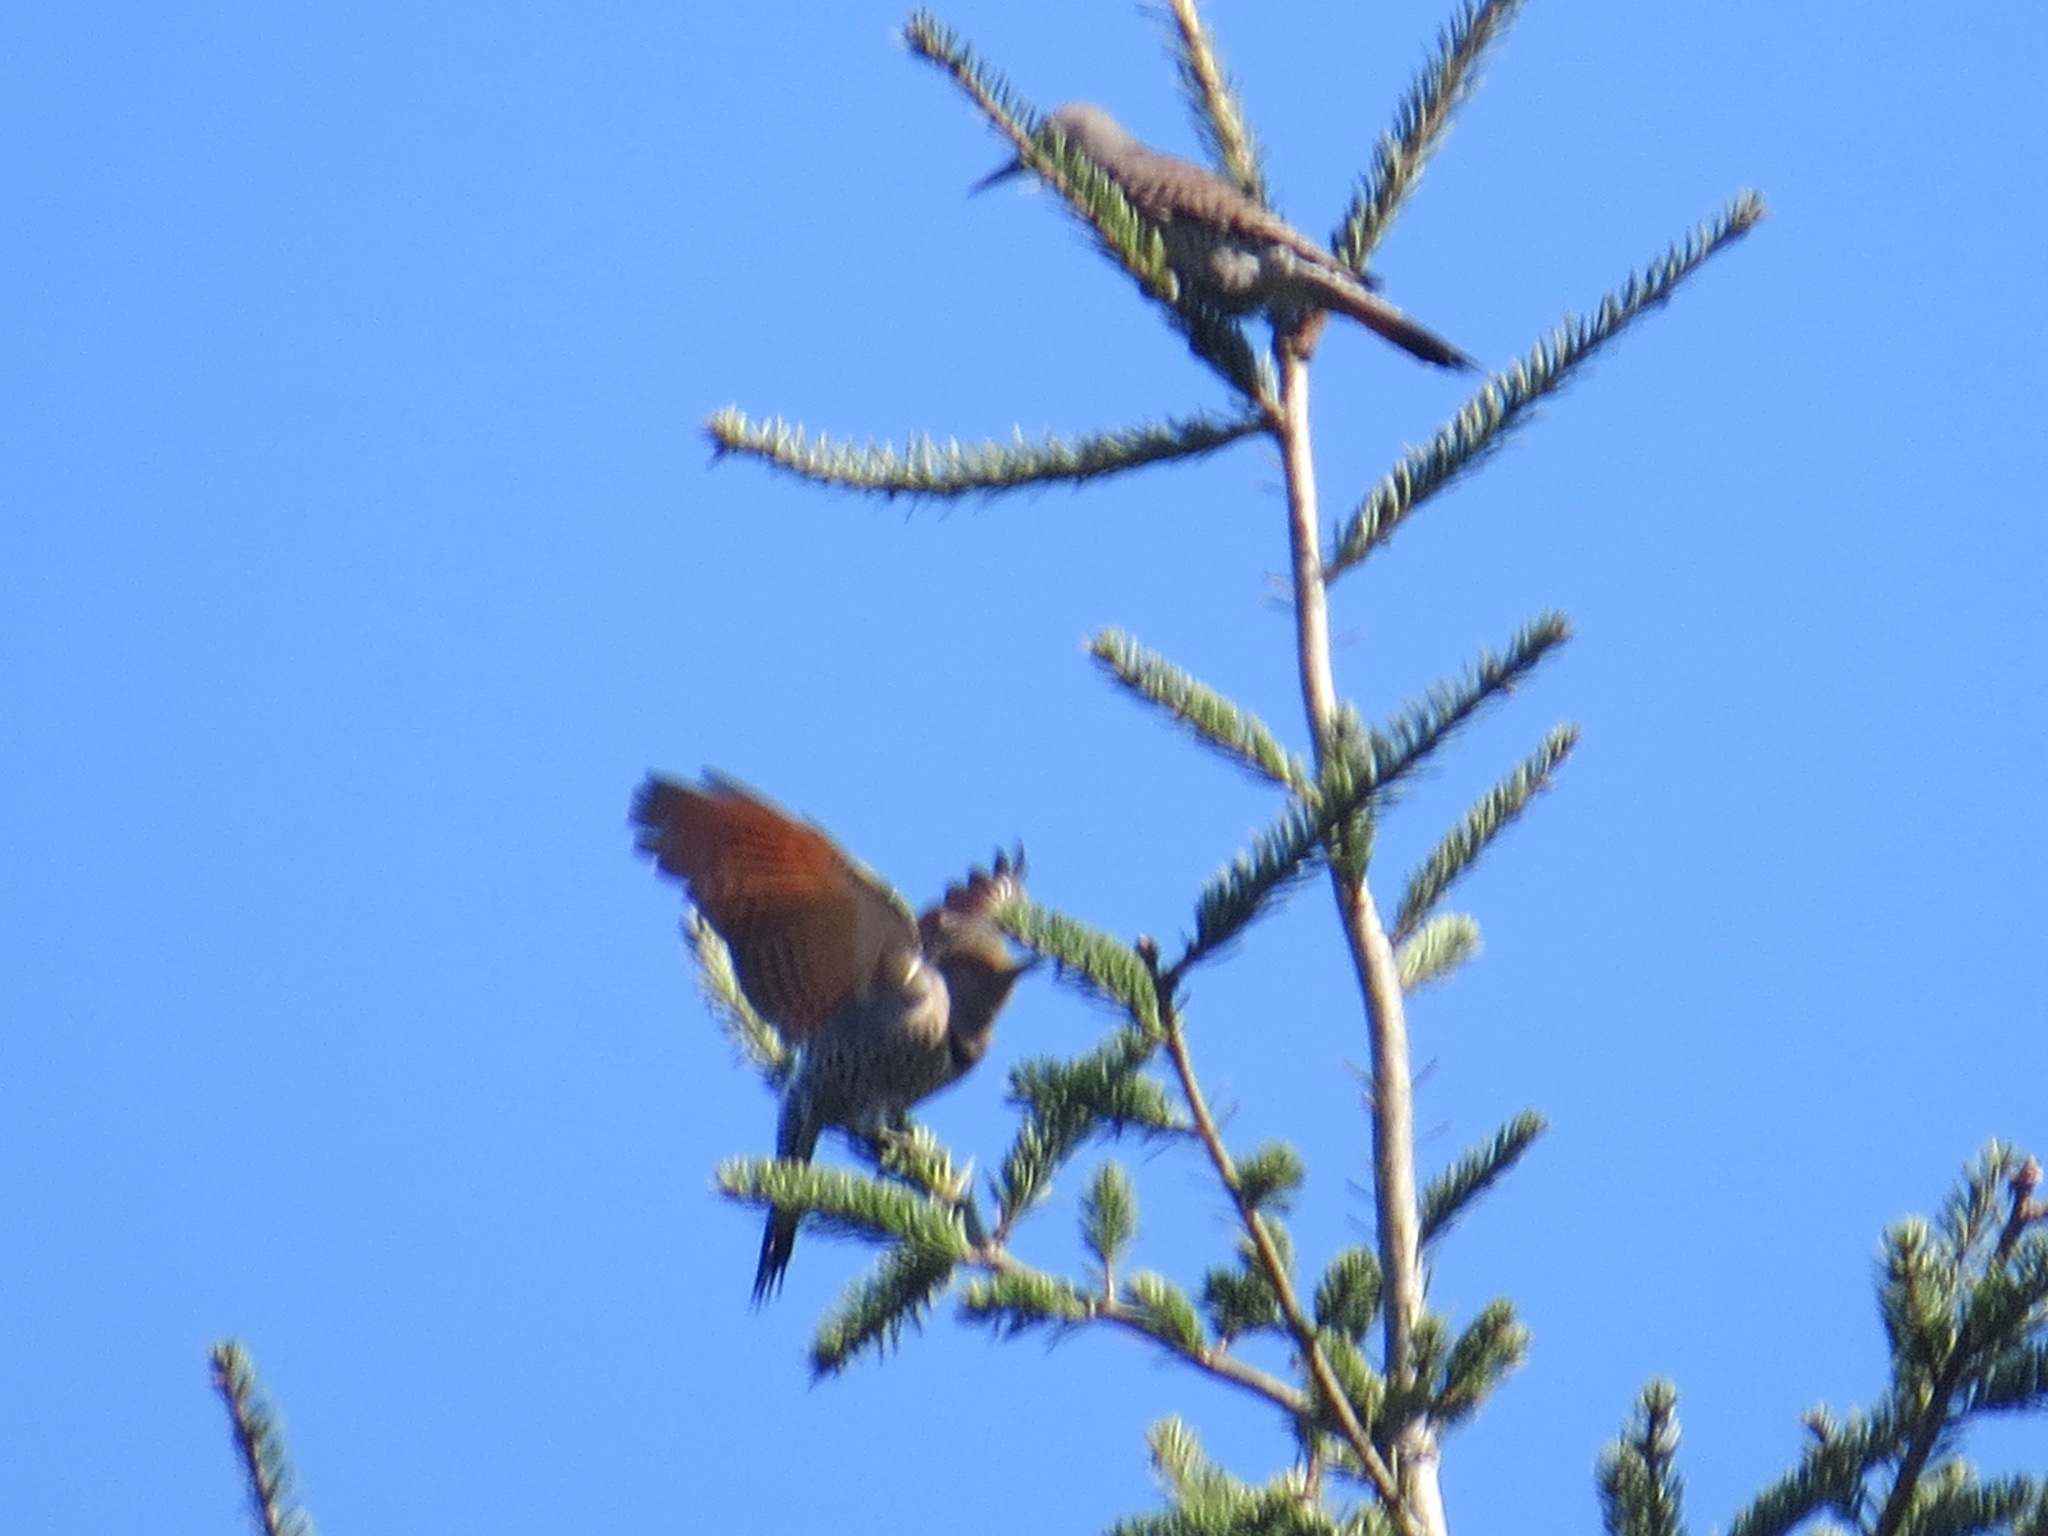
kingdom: Animalia
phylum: Chordata
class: Aves
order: Piciformes
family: Picidae
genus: Colaptes
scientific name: Colaptes auratus
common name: Northern flicker
